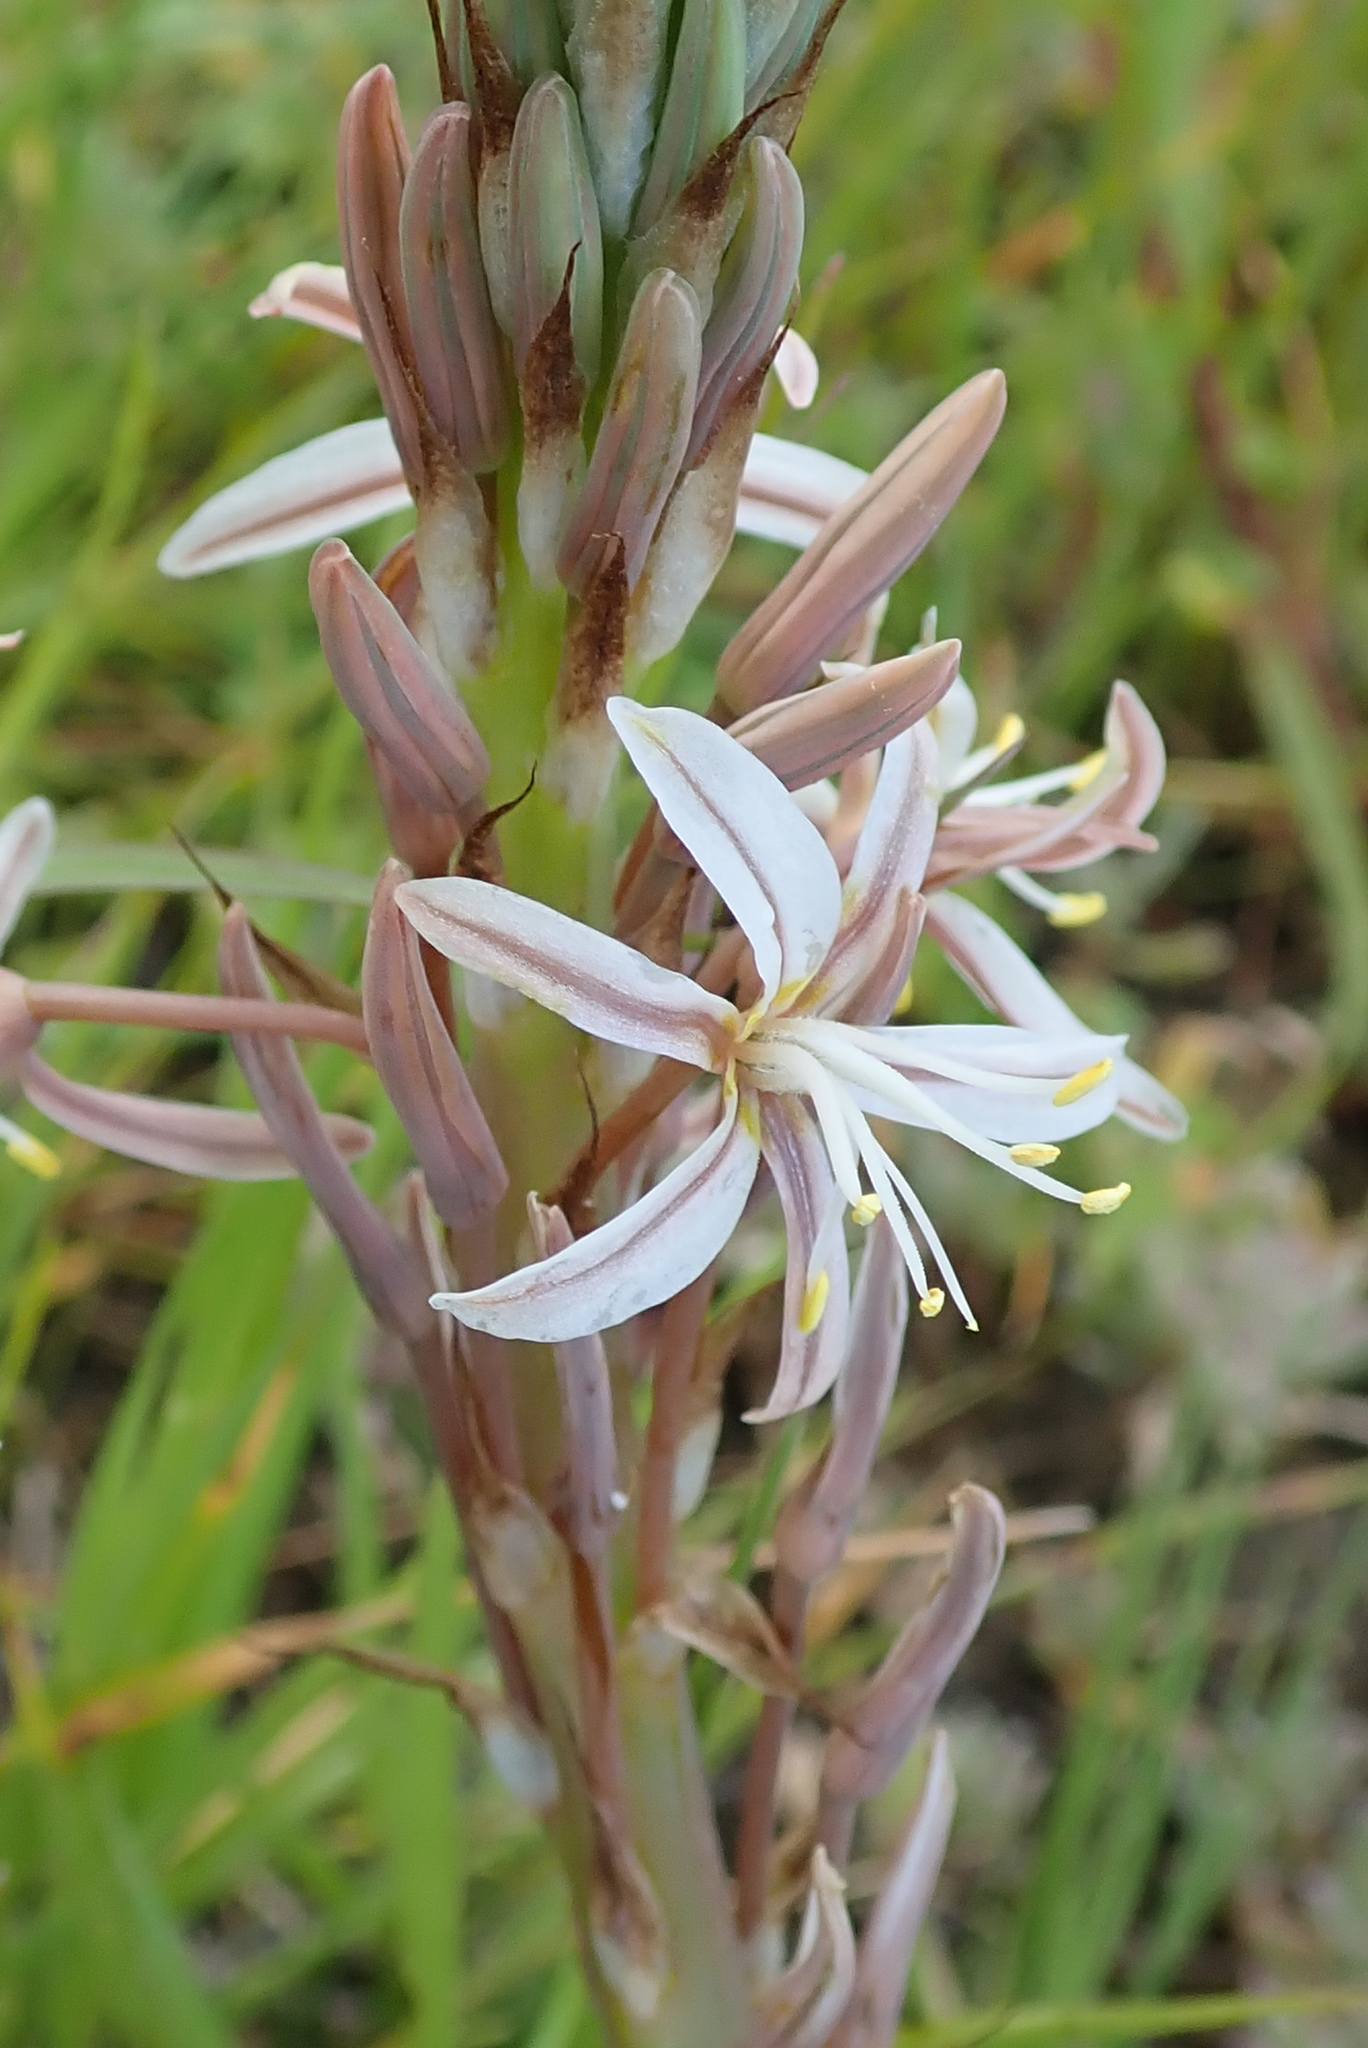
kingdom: Plantae
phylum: Tracheophyta
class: Liliopsida
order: Asparagales
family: Asphodelaceae
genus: Trachyandra
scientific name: Trachyandra ciliata
